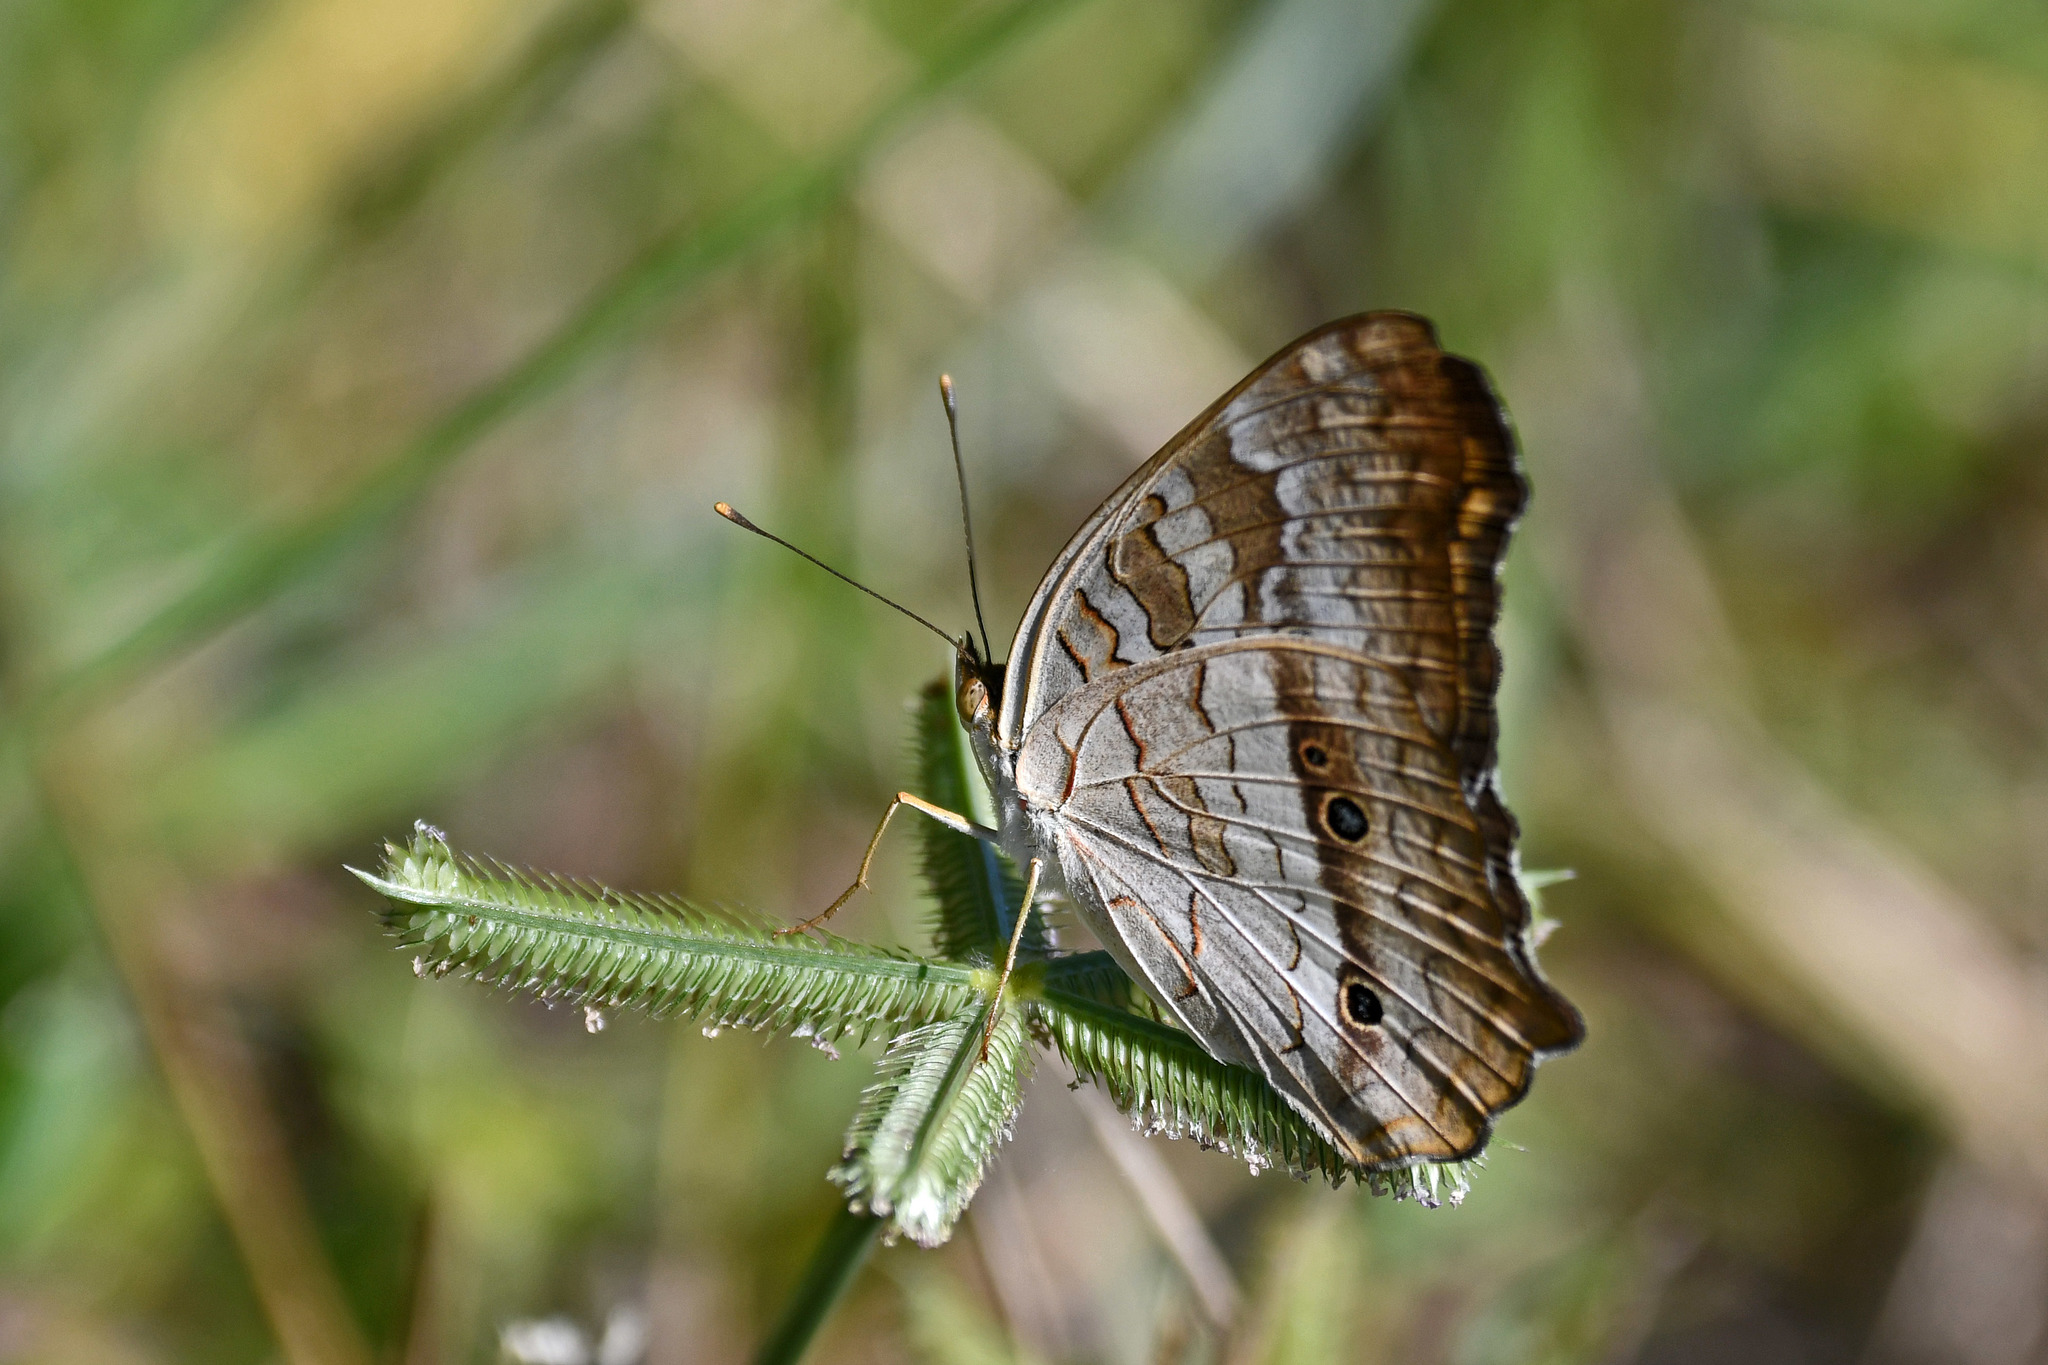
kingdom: Animalia
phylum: Arthropoda
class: Insecta
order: Lepidoptera
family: Nymphalidae
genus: Anartia
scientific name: Anartia jatrophae
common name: White peacock
